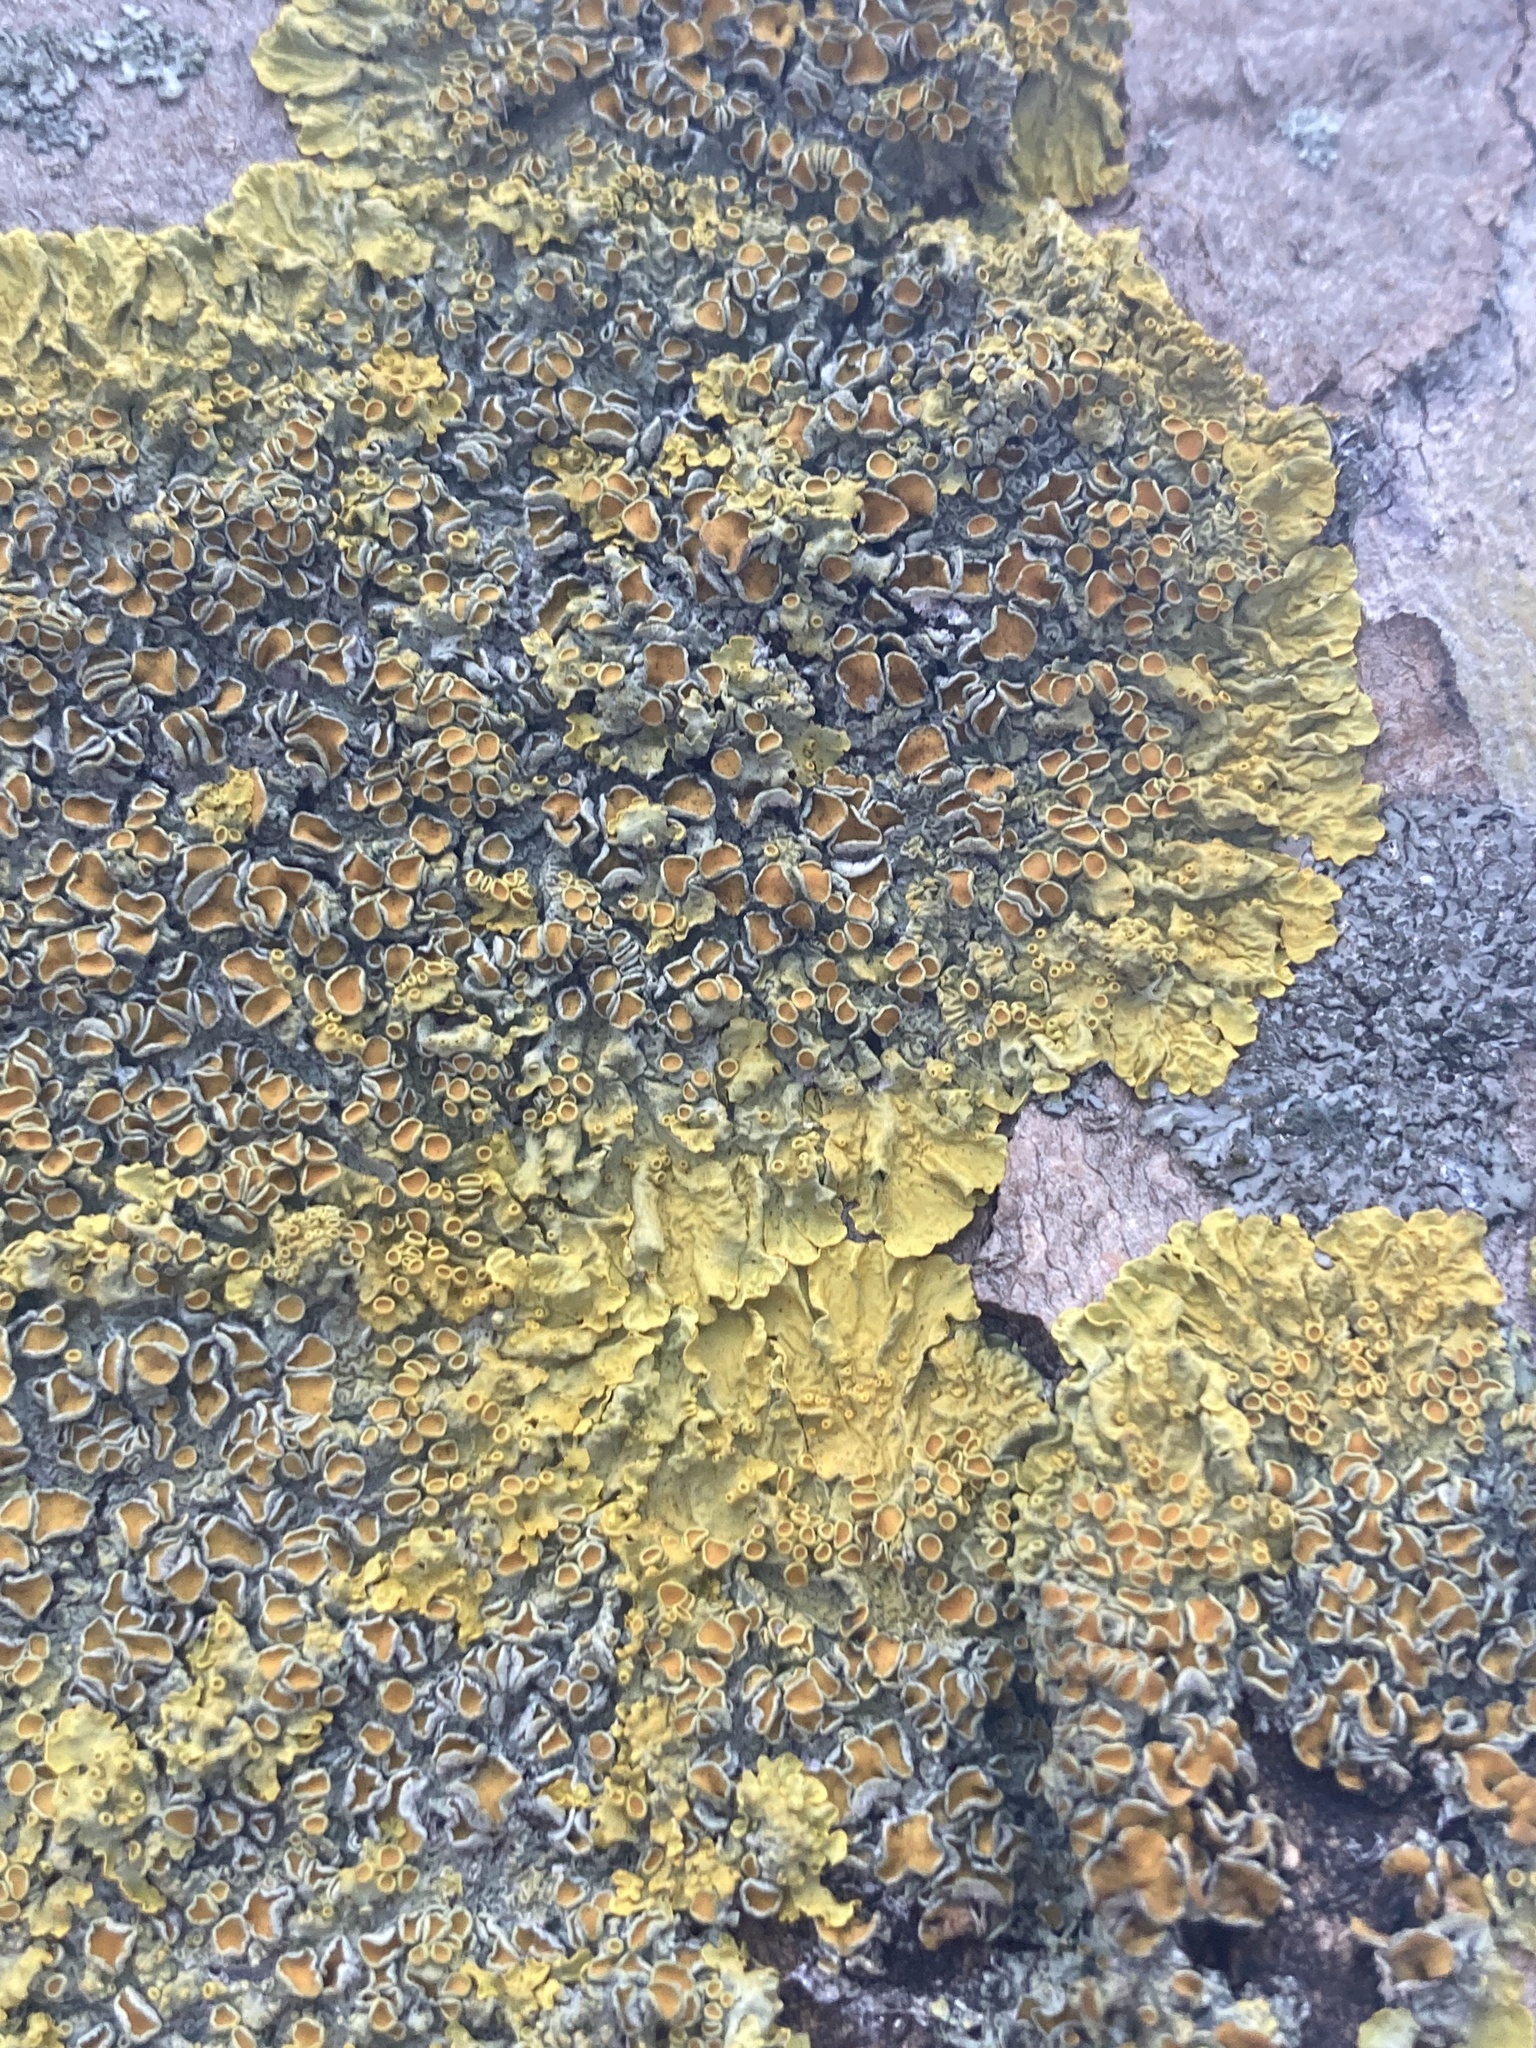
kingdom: Fungi
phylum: Ascomycota
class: Lecanoromycetes
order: Teloschistales
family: Teloschistaceae
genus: Xanthoria
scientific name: Xanthoria parietina
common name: Common orange lichen
